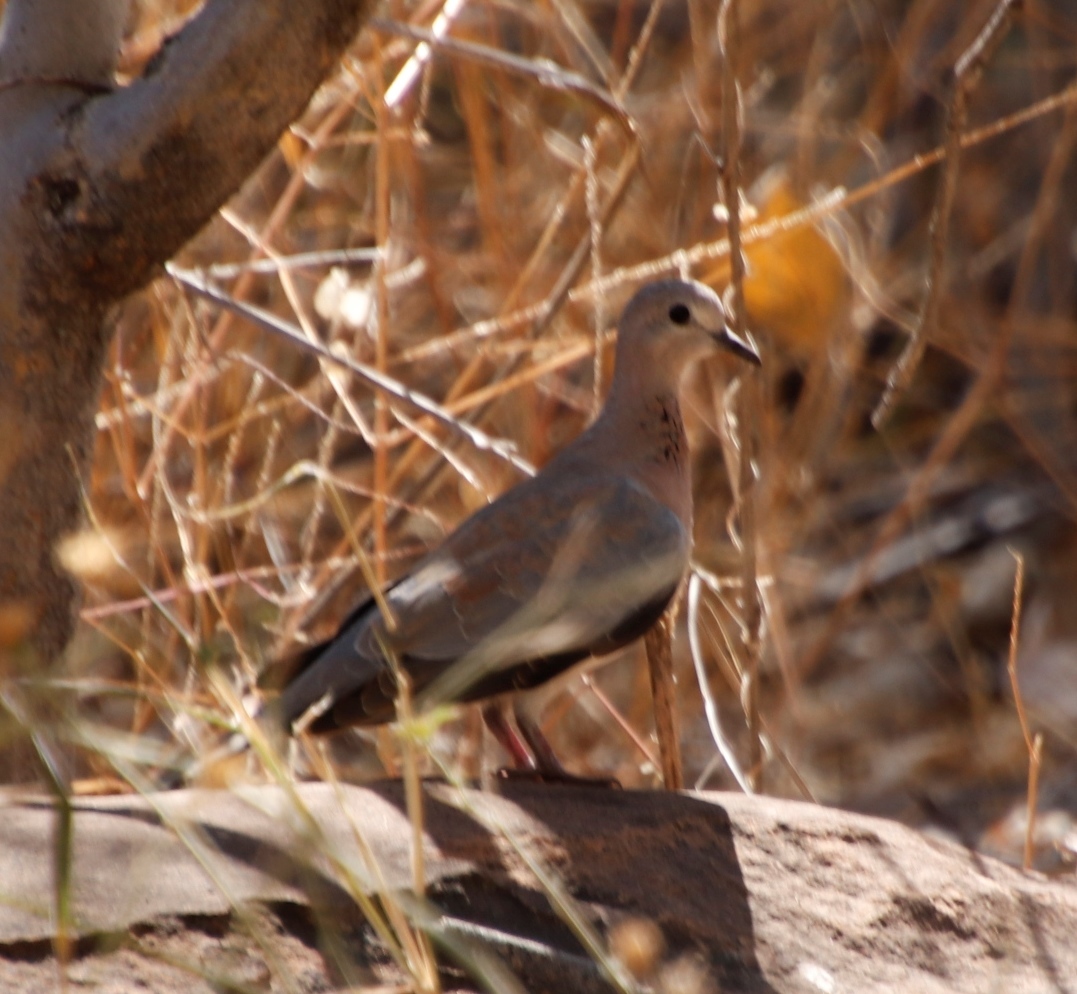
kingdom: Animalia
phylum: Chordata
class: Aves
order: Columbiformes
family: Columbidae
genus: Spilopelia
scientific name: Spilopelia senegalensis
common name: Laughing dove
